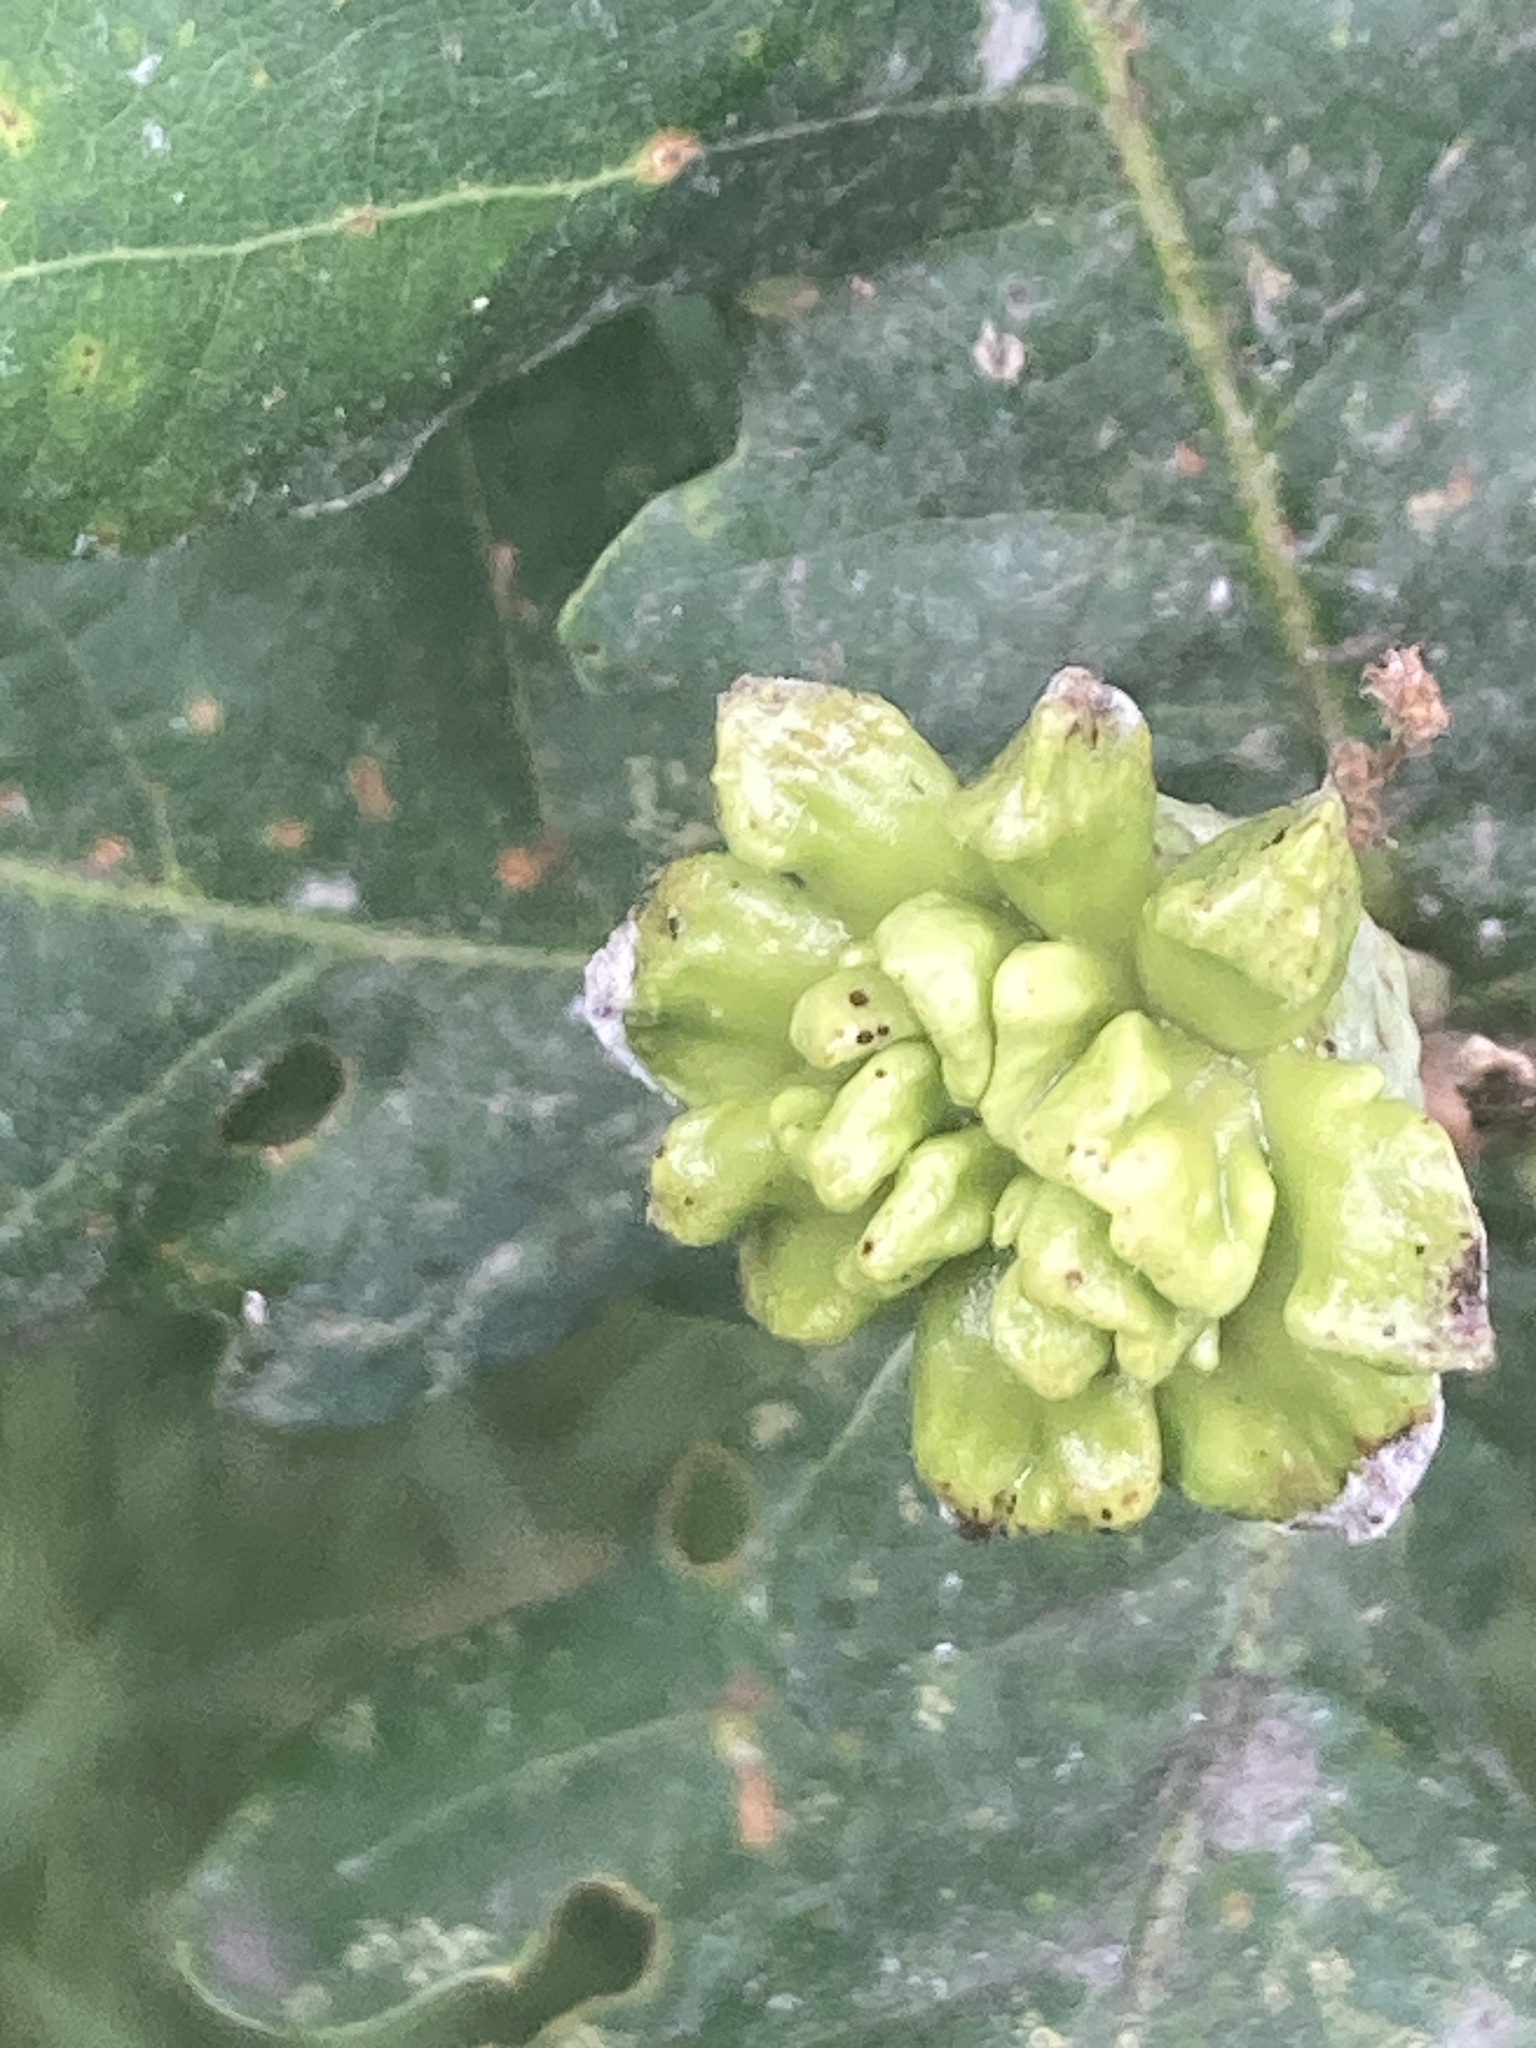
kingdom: Animalia
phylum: Arthropoda
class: Insecta
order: Hymenoptera
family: Cynipidae
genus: Andricus
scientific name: Andricus quercuscalicis
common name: Knopper gall
